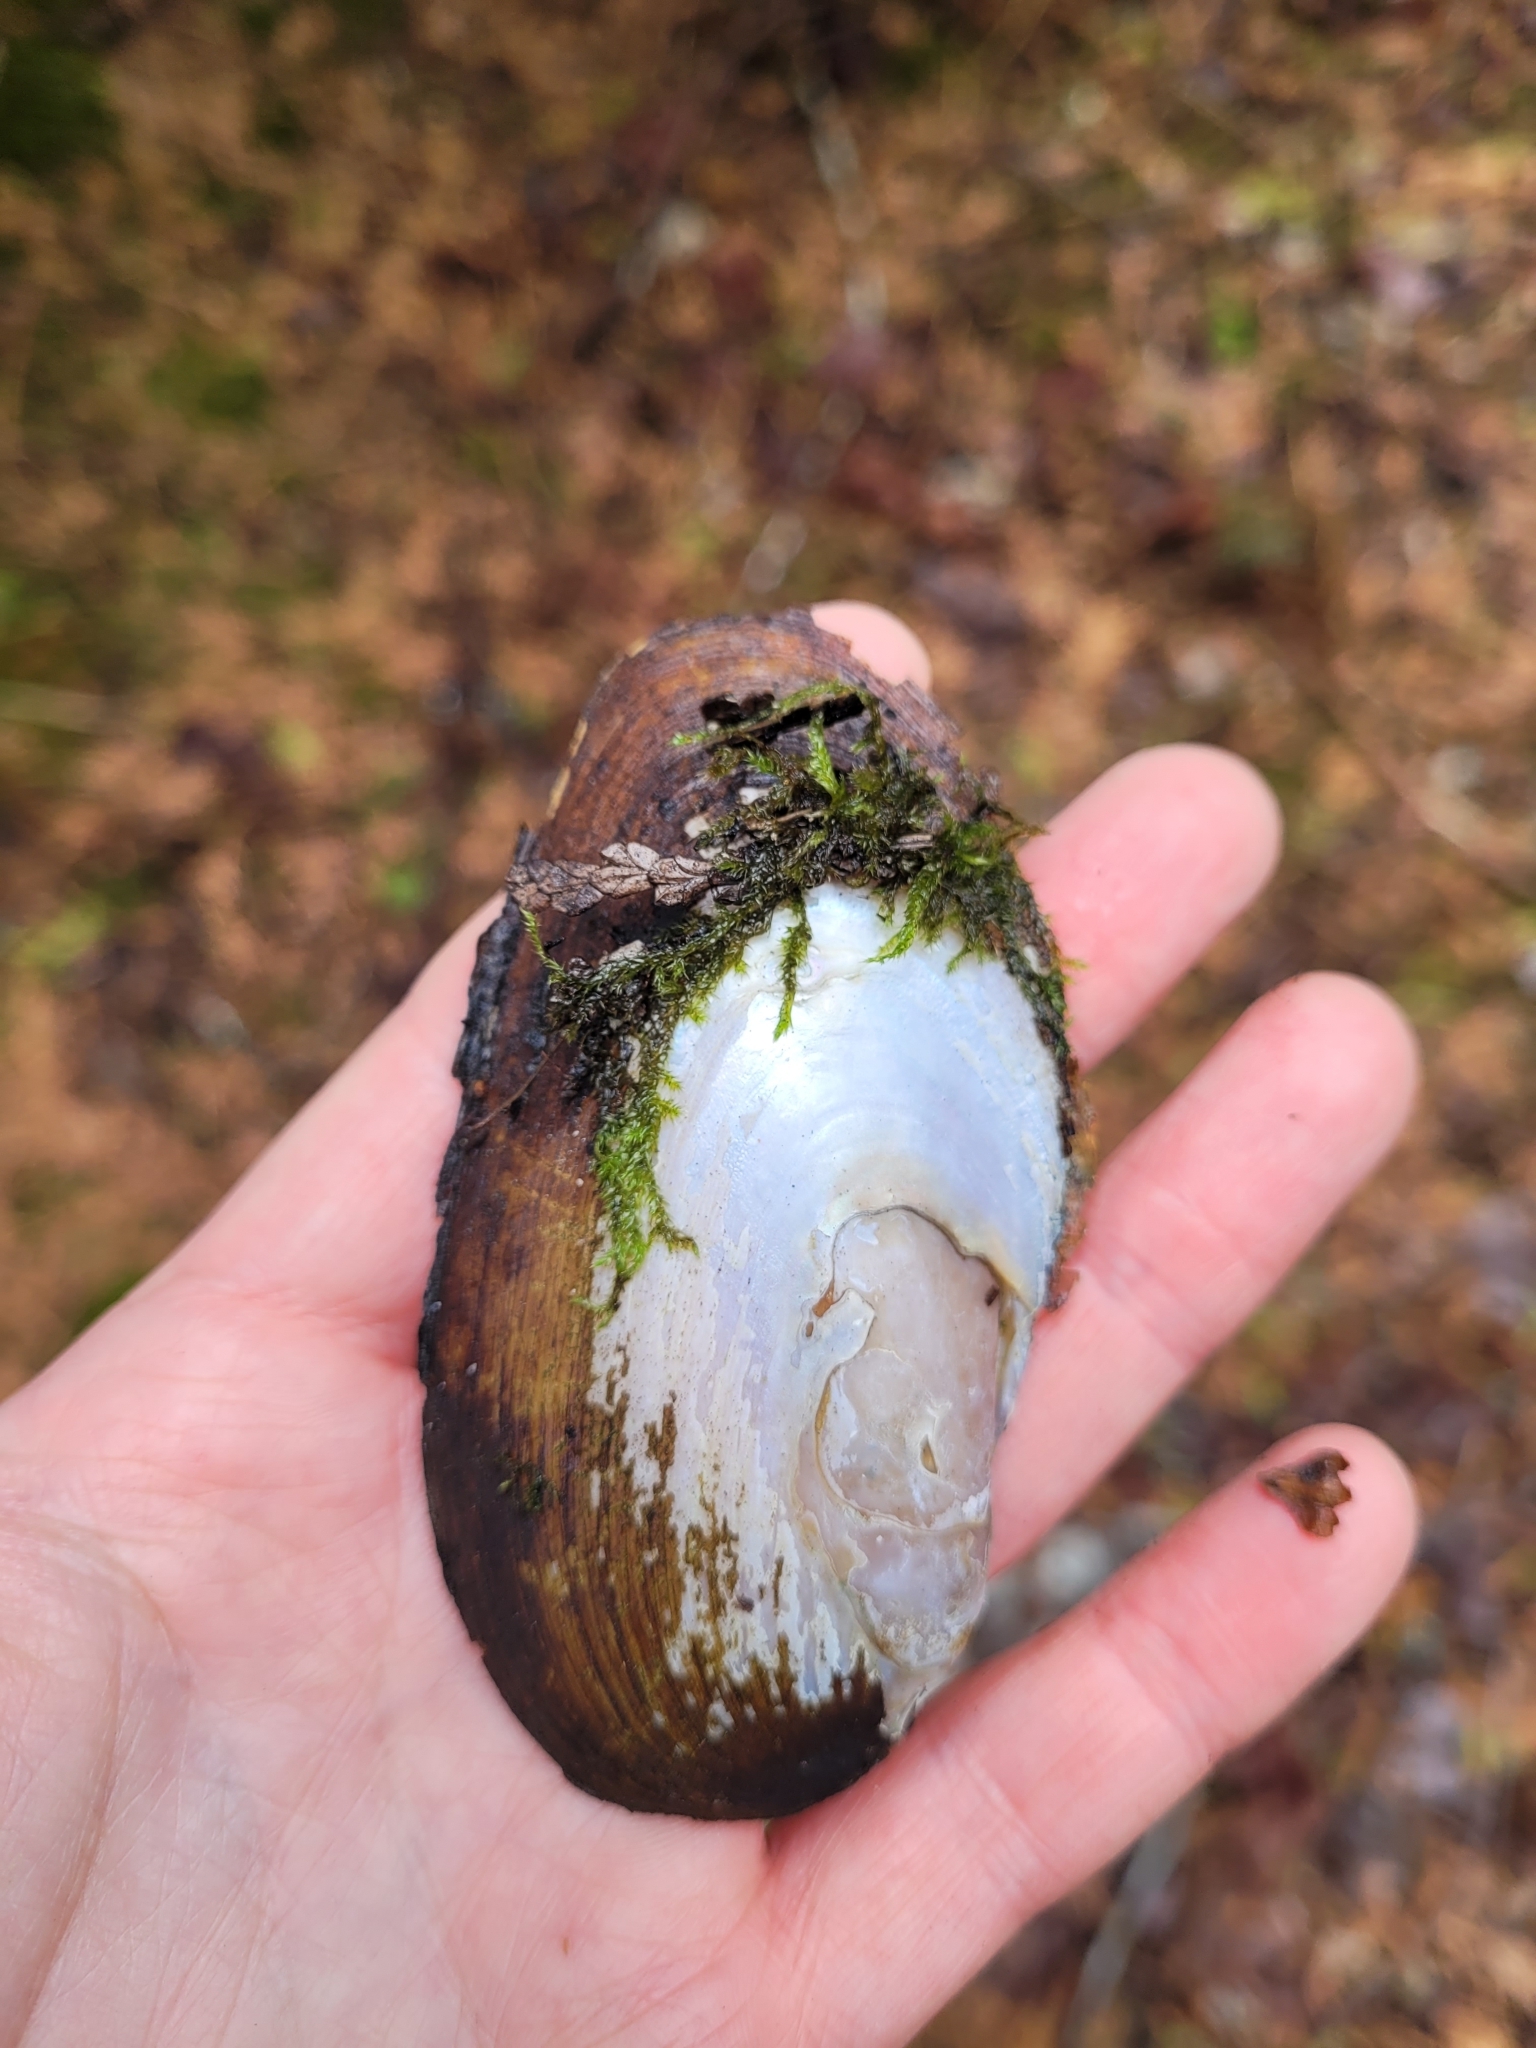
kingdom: Animalia
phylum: Mollusca
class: Bivalvia
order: Unionida
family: Unionidae
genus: Elliptio
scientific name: Elliptio complanata
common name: Eastern elliptio
